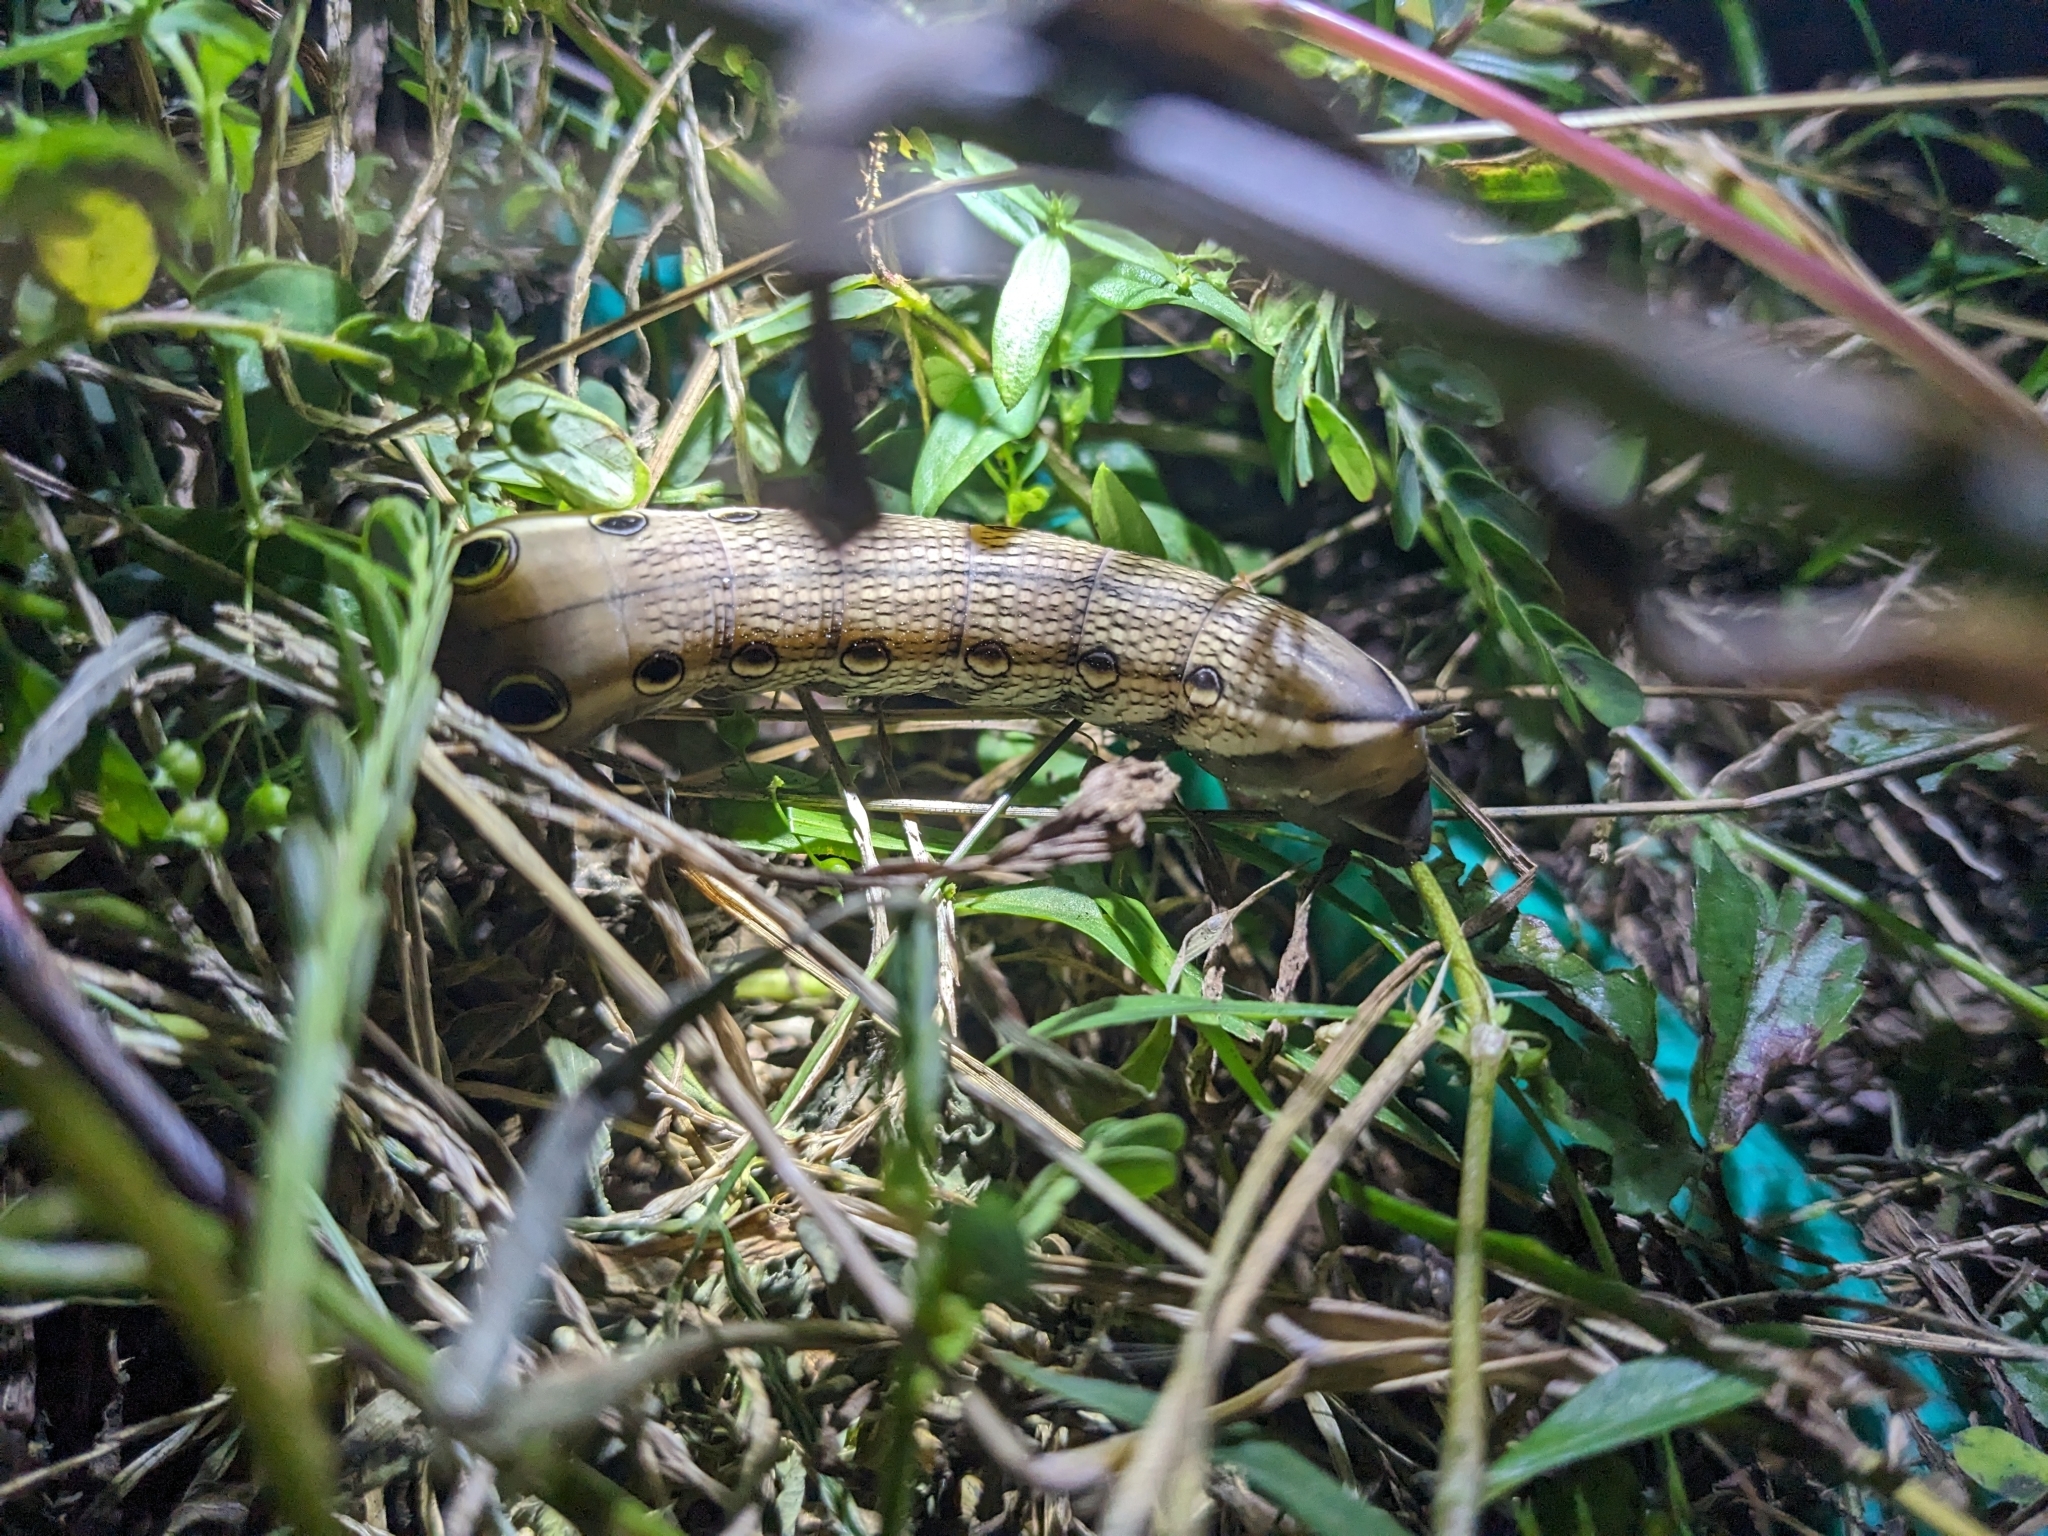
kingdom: Animalia
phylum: Arthropoda
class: Insecta
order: Lepidoptera
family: Sphingidae
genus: Xylophanes
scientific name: Xylophanes tersa
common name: Tersa sphinx
